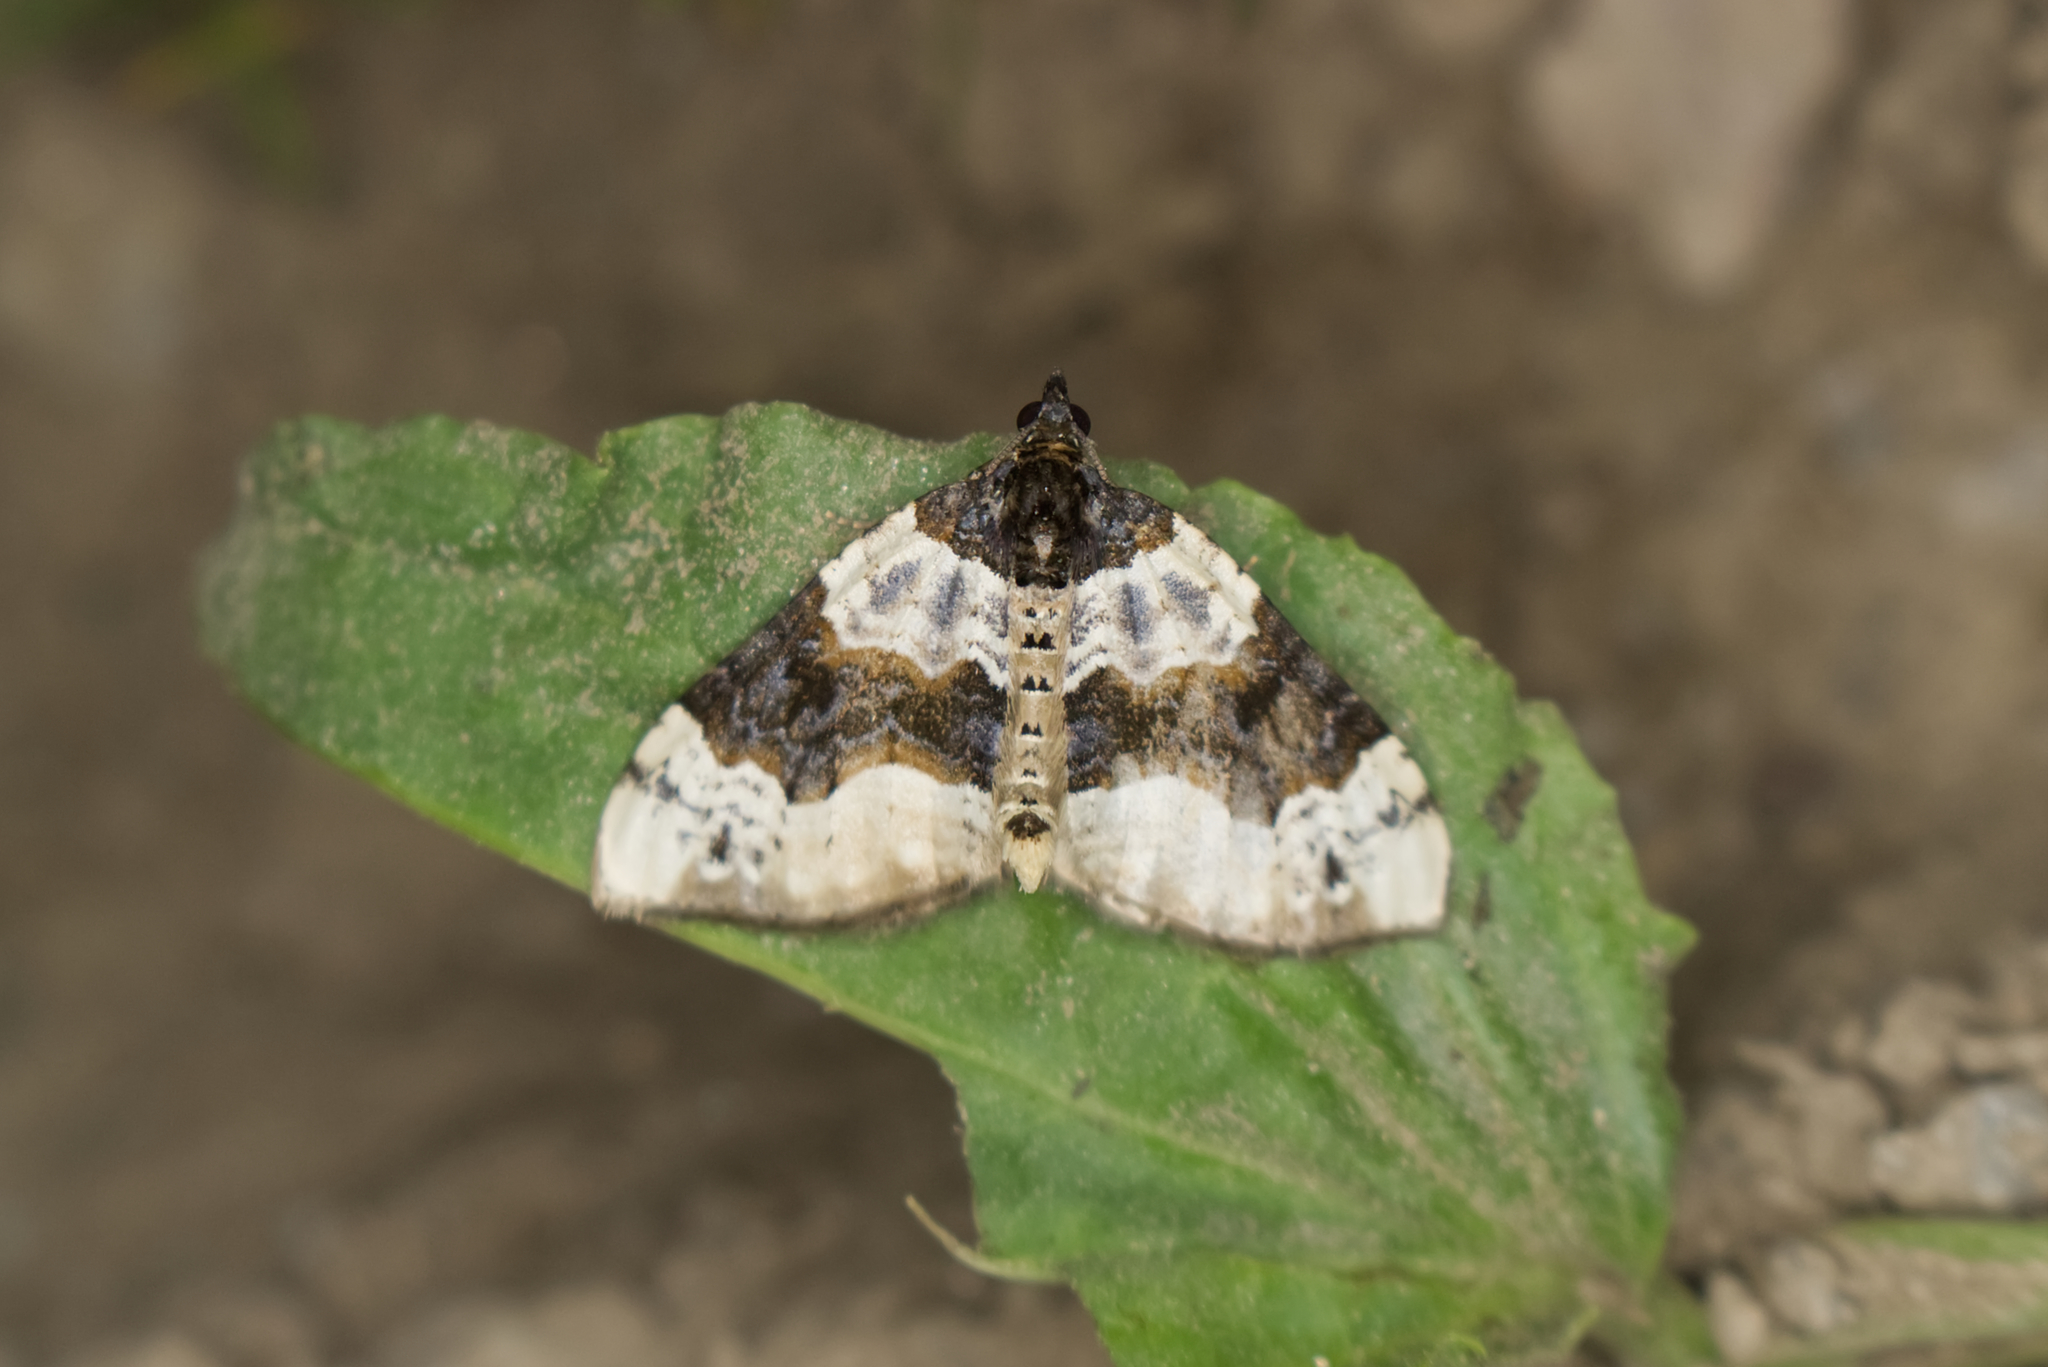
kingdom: Animalia
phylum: Arthropoda
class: Insecta
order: Lepidoptera
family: Geometridae
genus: Cosmorhoe
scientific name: Cosmorhoe ocellata
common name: Purple bar
